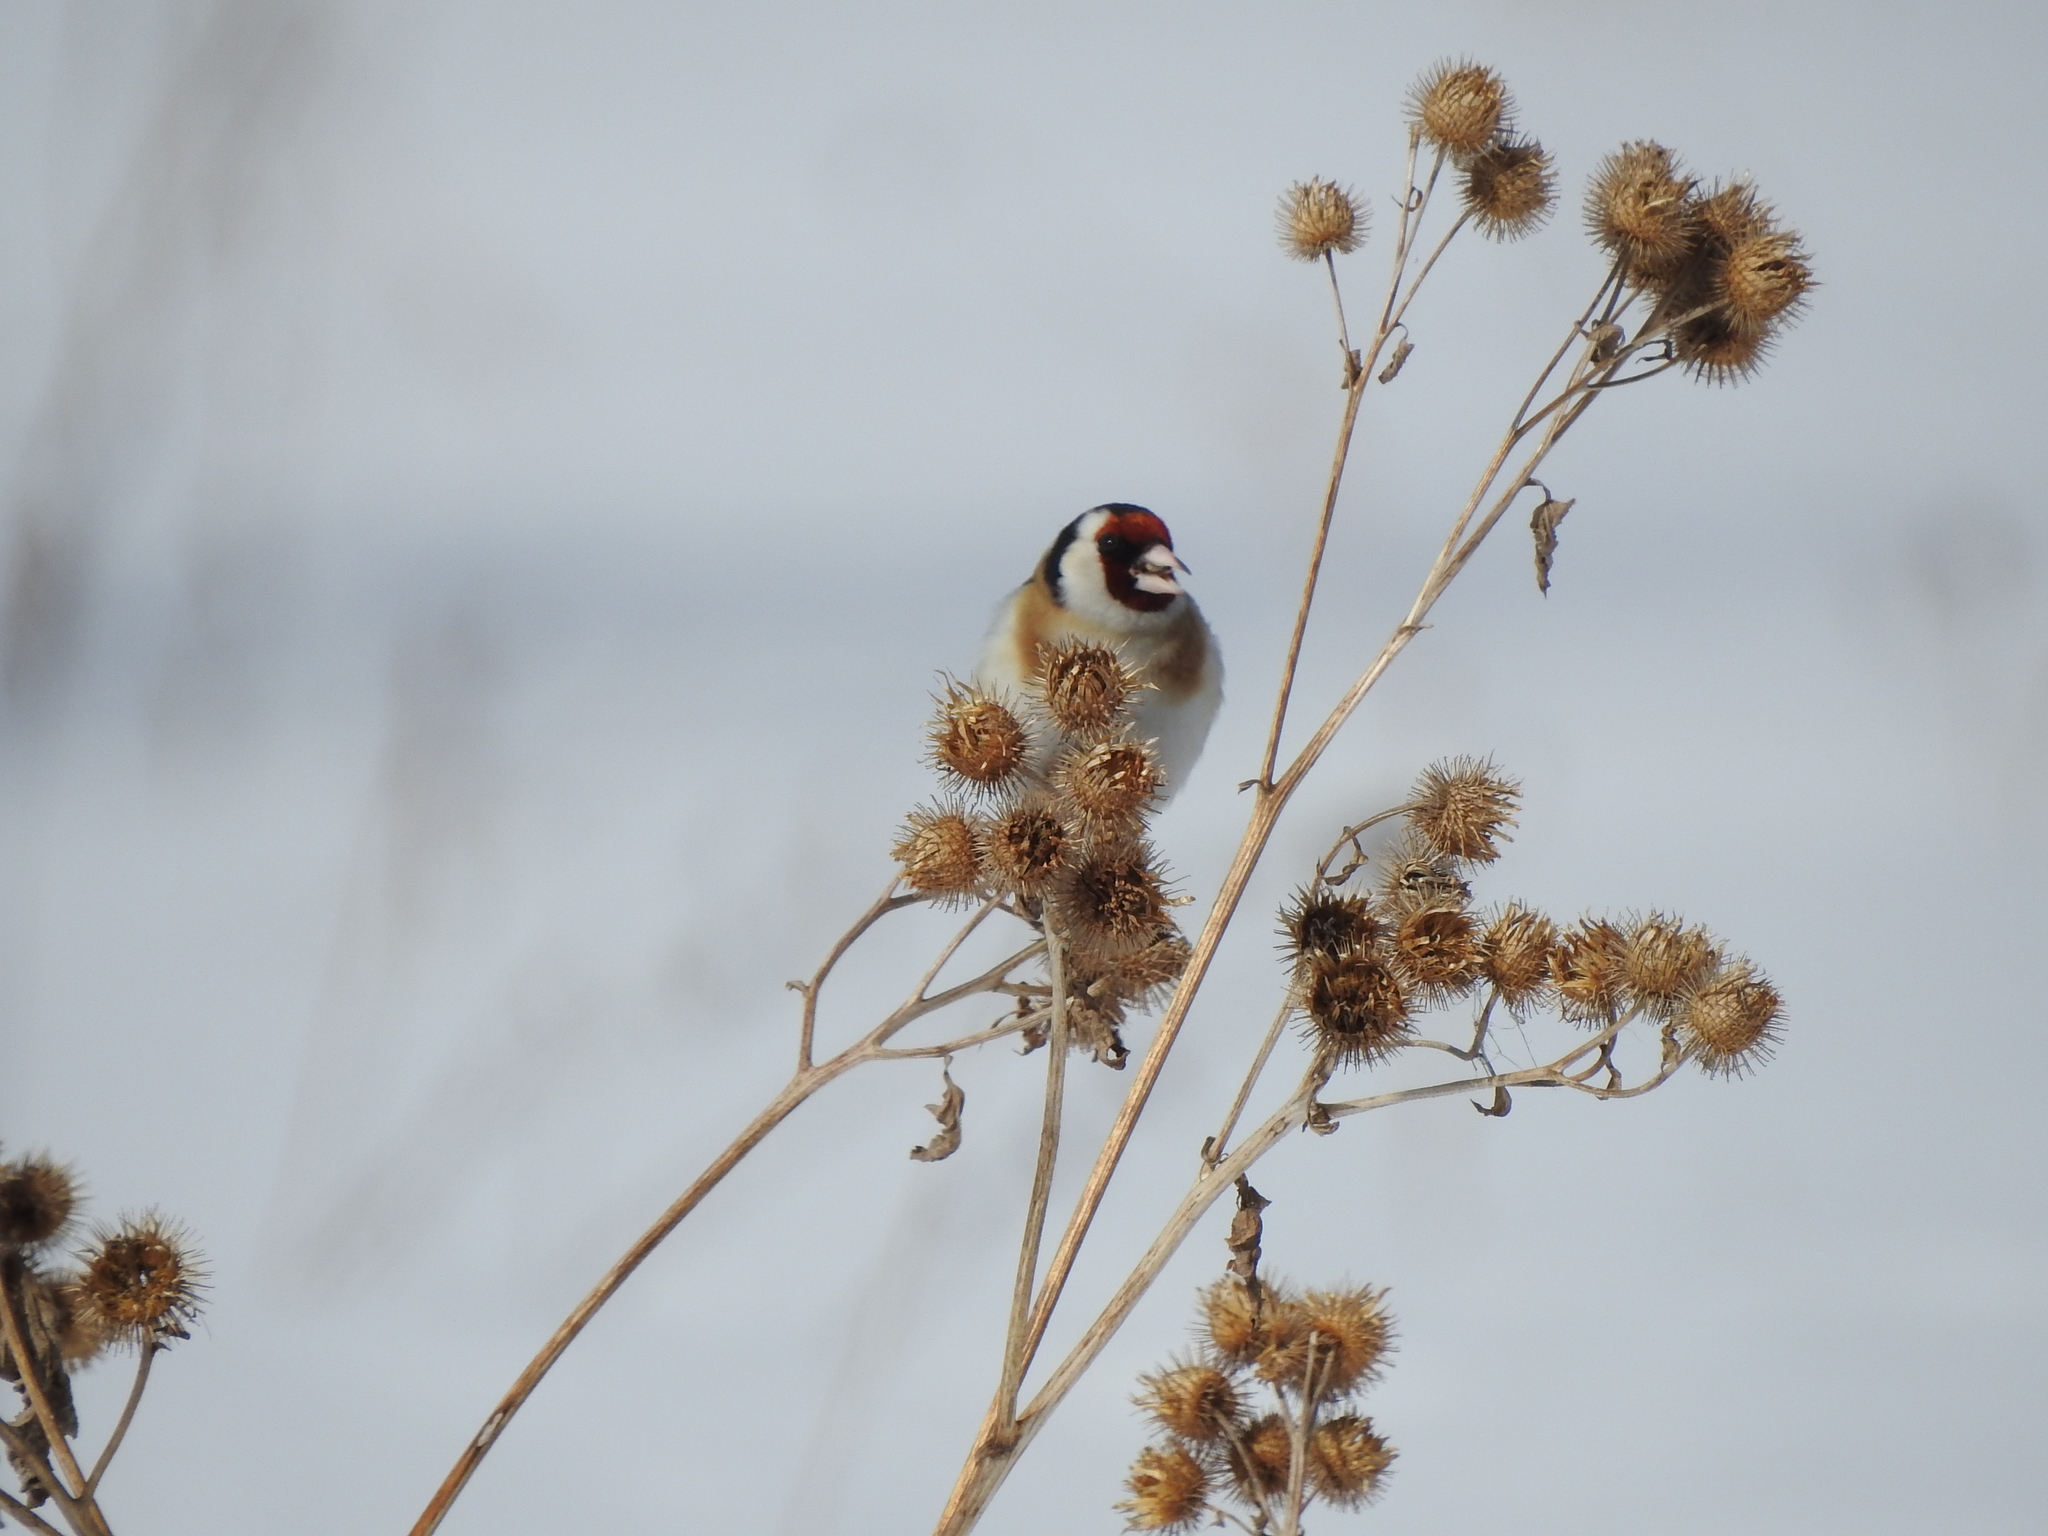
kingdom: Animalia
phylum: Chordata
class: Aves
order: Passeriformes
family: Fringillidae
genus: Carduelis
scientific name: Carduelis carduelis
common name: European goldfinch
